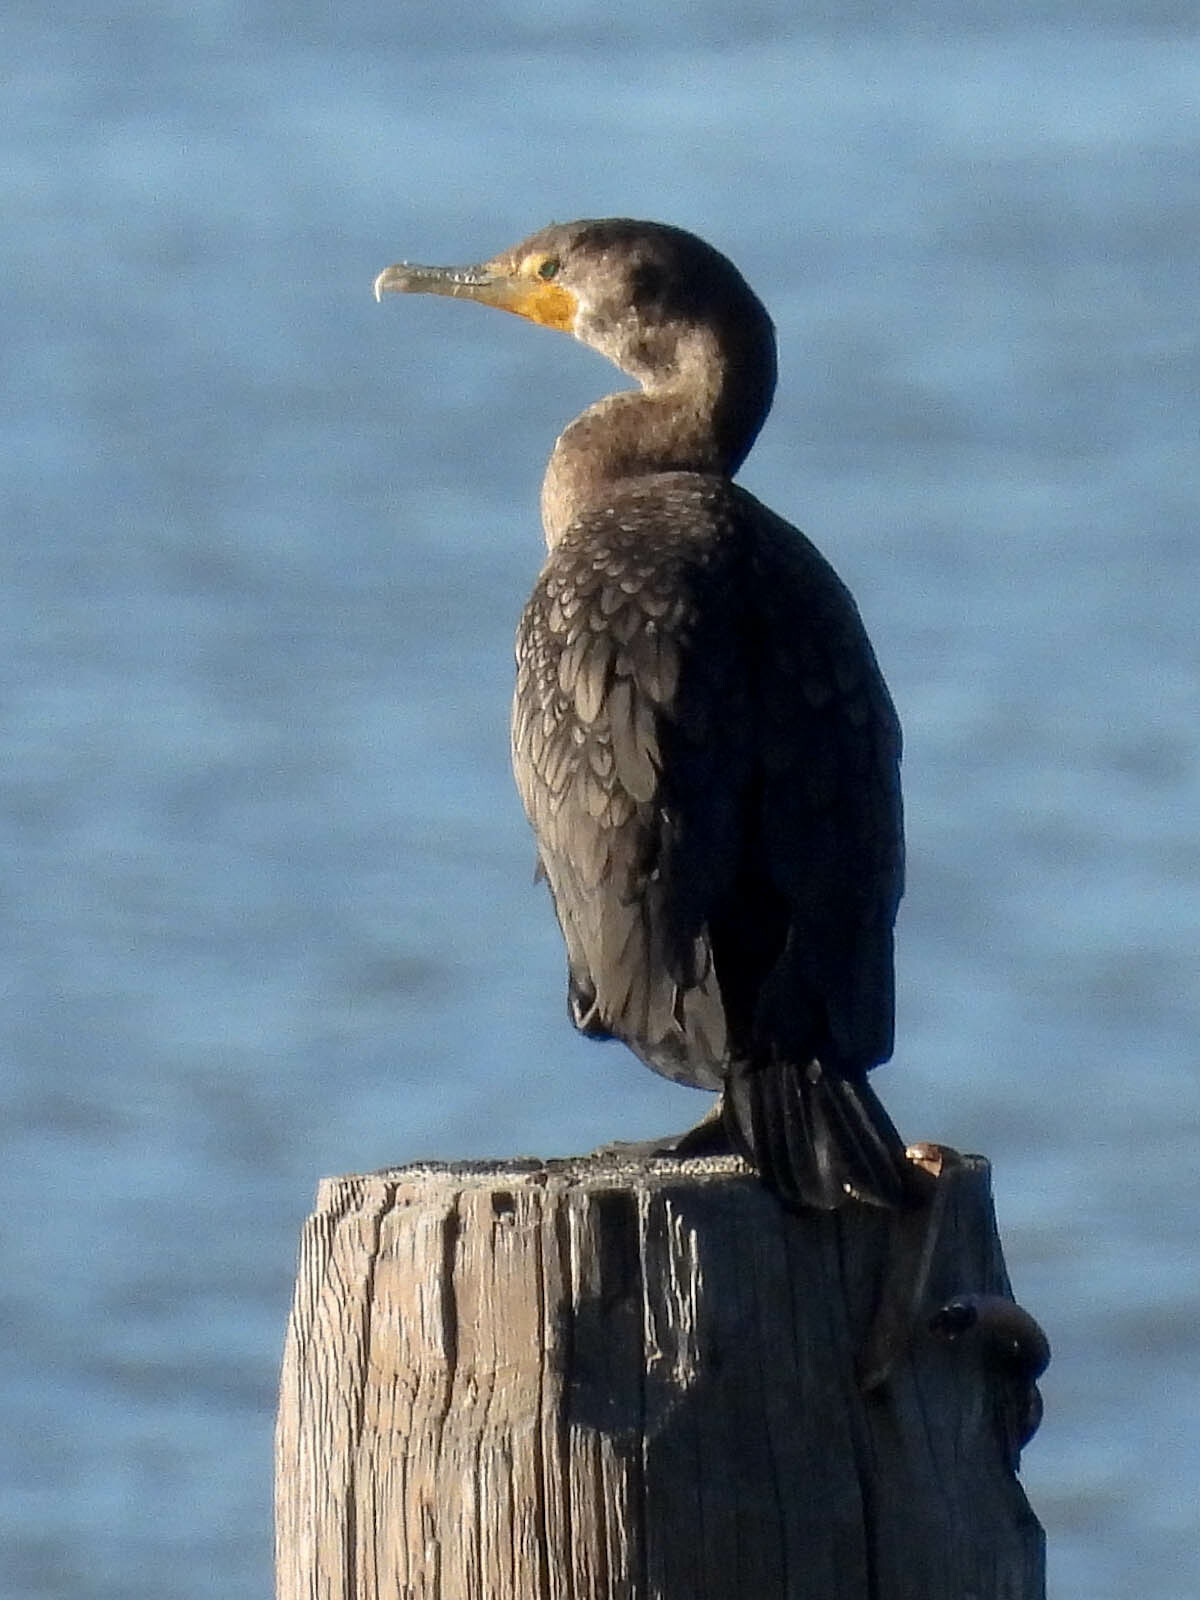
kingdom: Animalia
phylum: Chordata
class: Aves
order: Suliformes
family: Phalacrocoracidae
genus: Phalacrocorax
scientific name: Phalacrocorax auritus
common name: Double-crested cormorant
